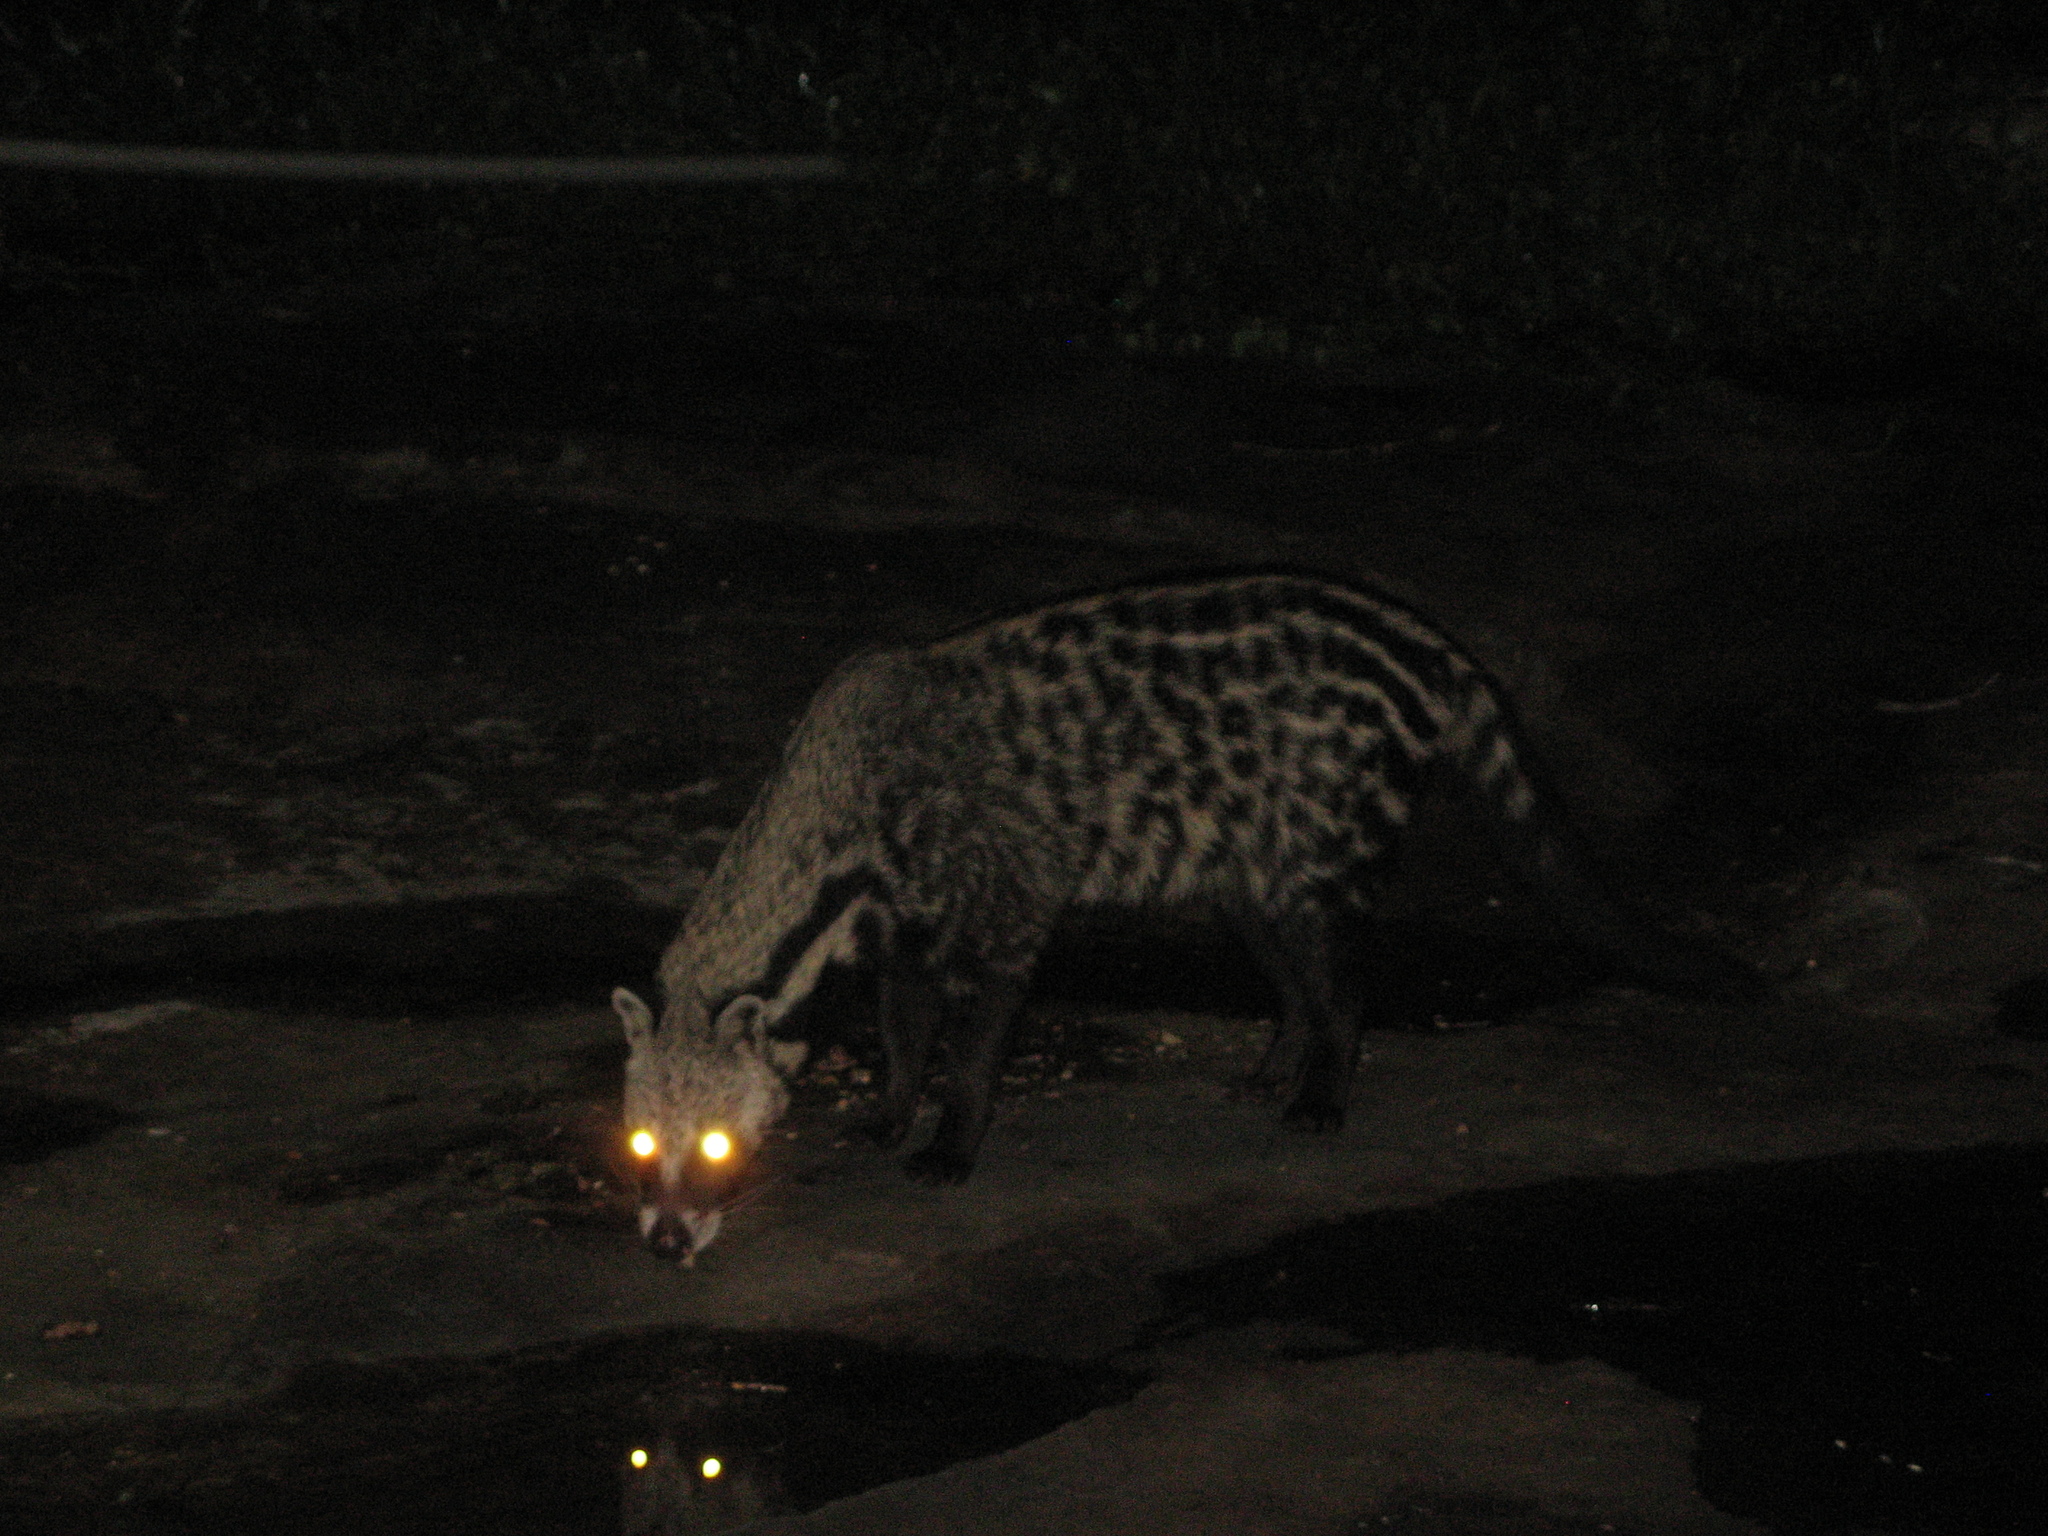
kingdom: Animalia
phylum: Chordata
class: Mammalia
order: Carnivora
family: Viverridae
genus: Civettictis
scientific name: Civettictis civetta
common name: African civet
